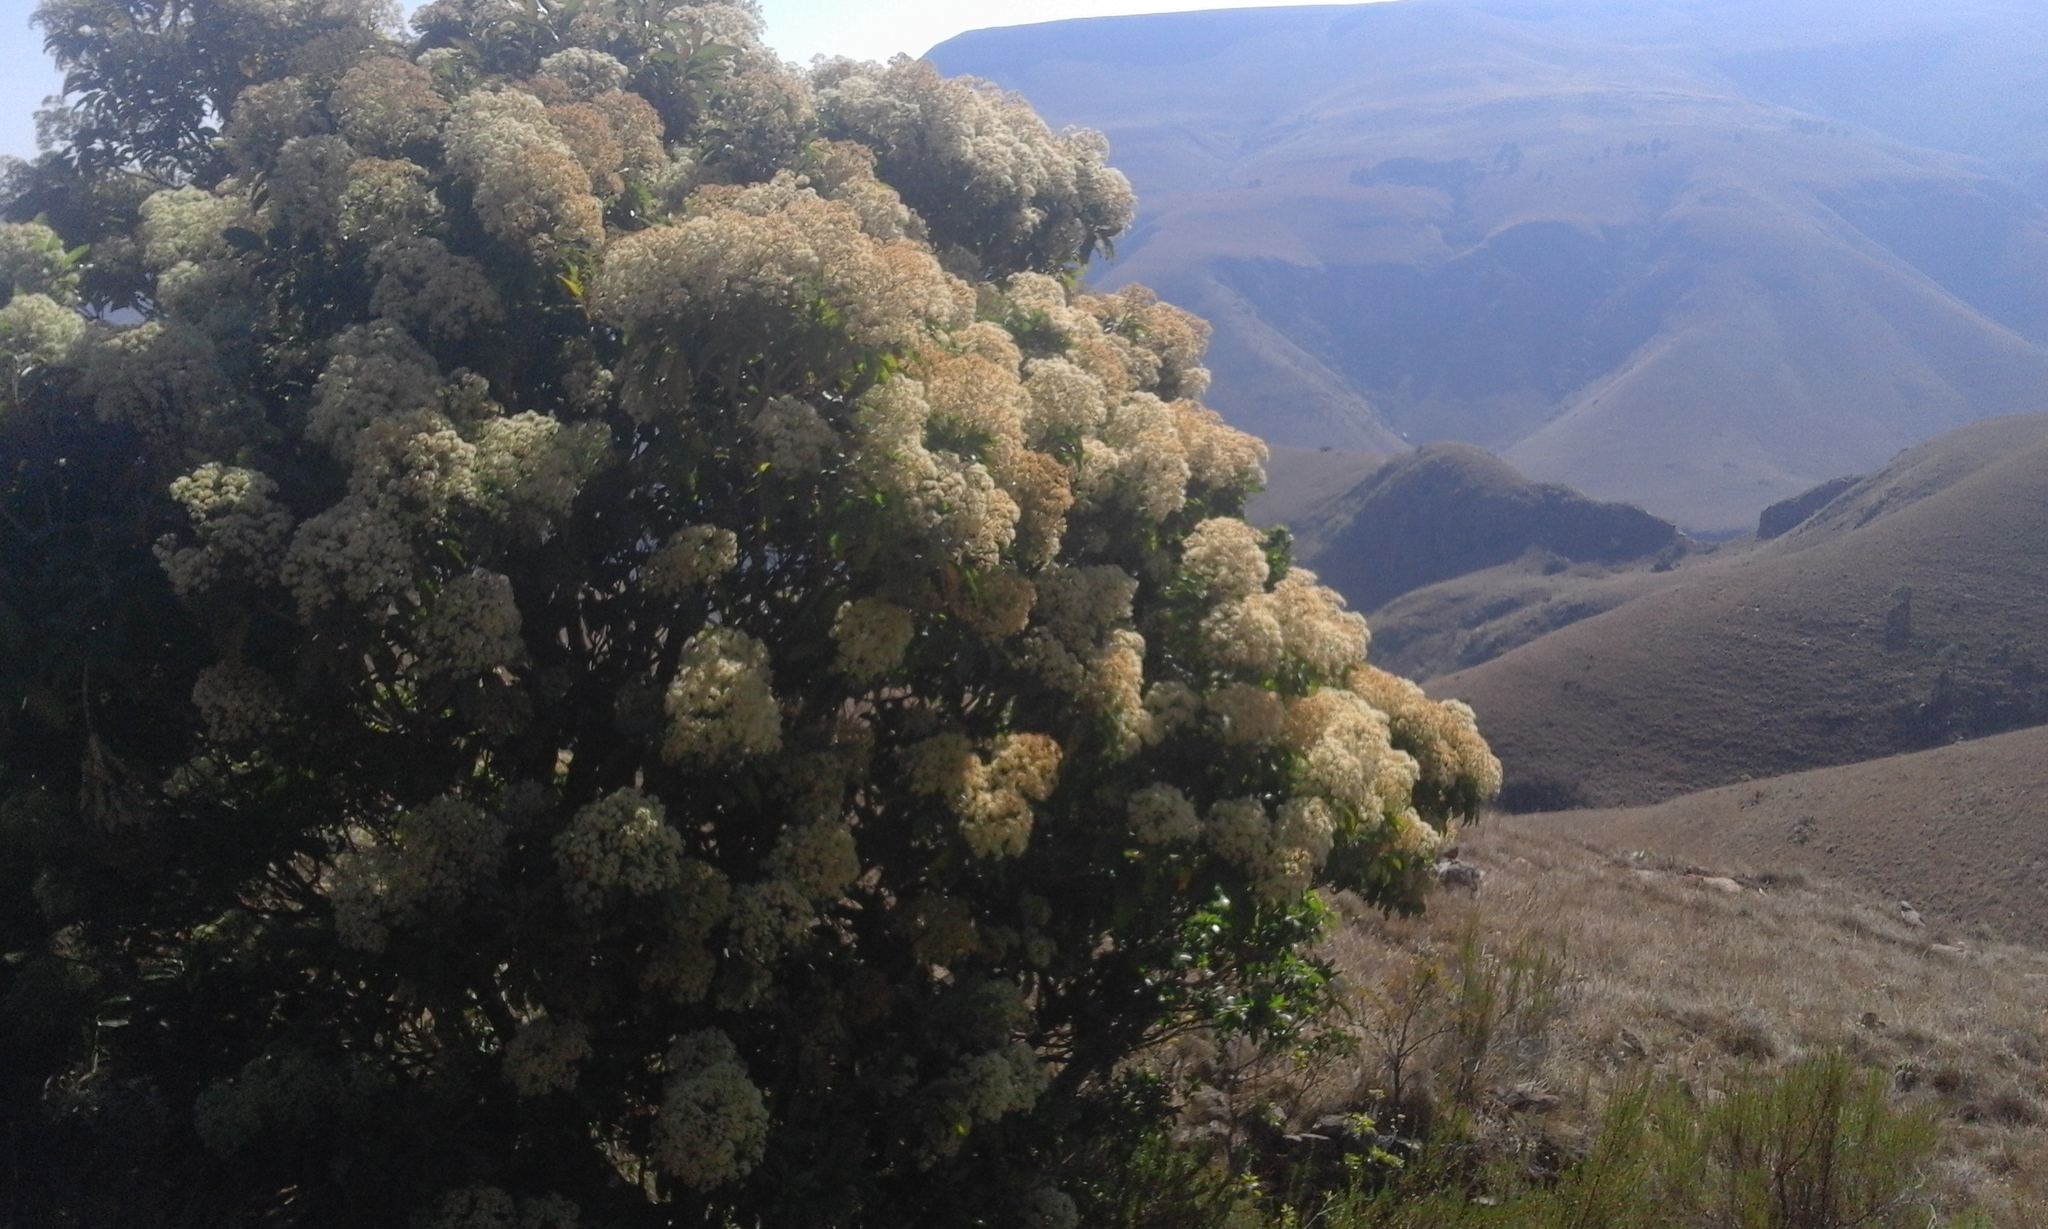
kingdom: Plantae
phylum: Tracheophyta
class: Magnoliopsida
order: Lamiales
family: Stilbaceae
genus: Nuxia
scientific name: Nuxia floribunda
